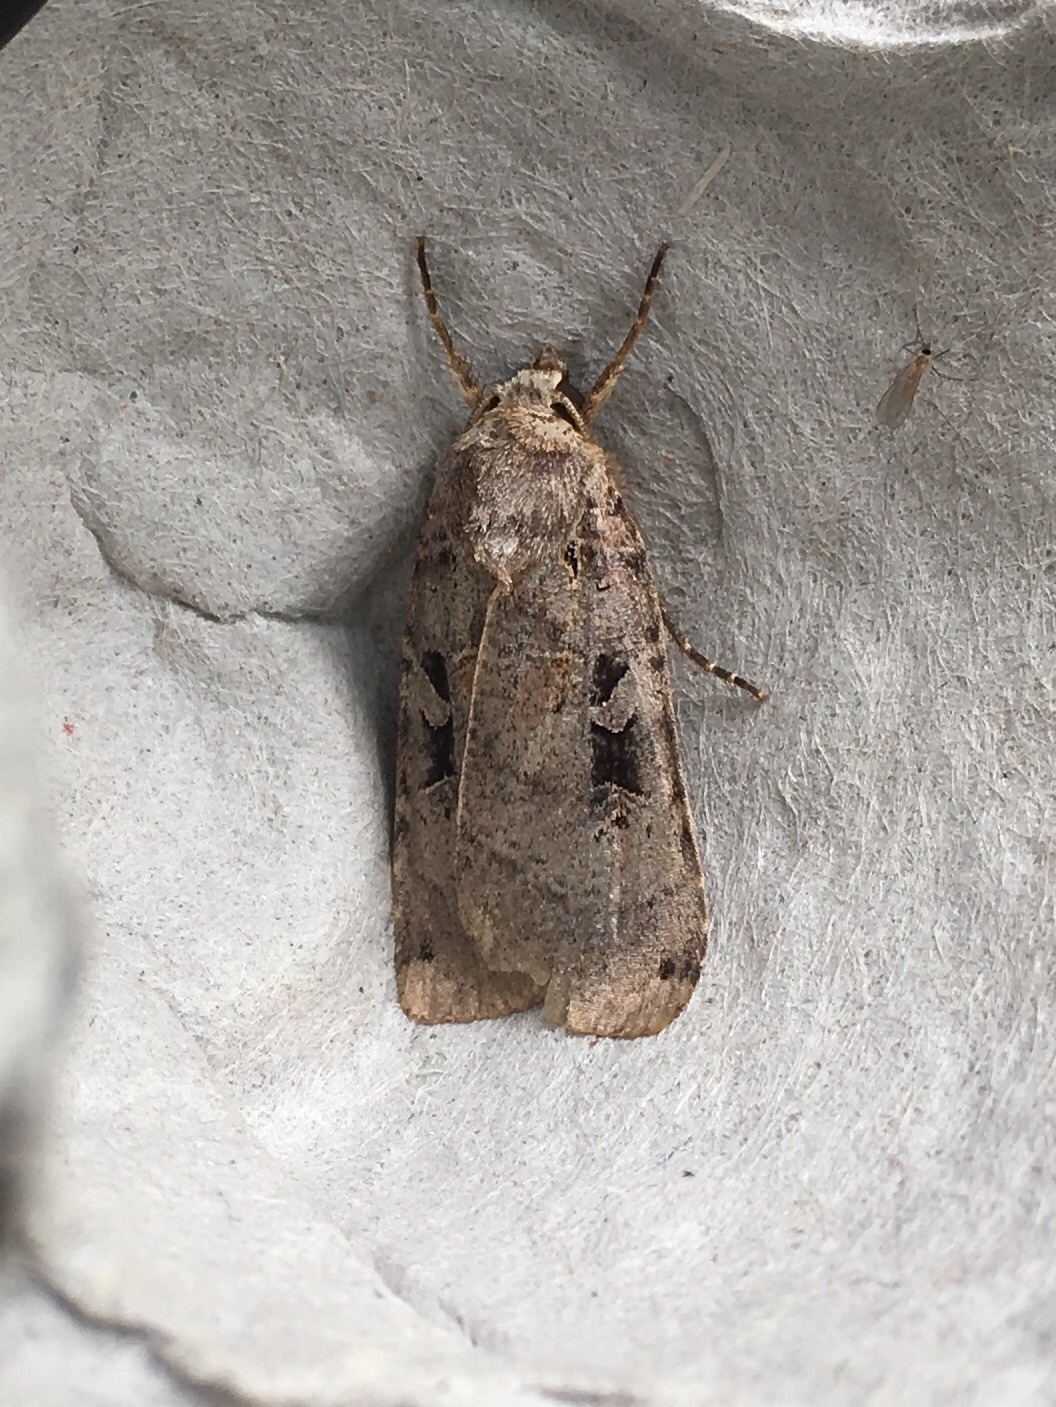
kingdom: Animalia
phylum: Arthropoda
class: Insecta
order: Lepidoptera
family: Noctuidae
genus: Xestia
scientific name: Xestia normaniana
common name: Norman's dart moth
